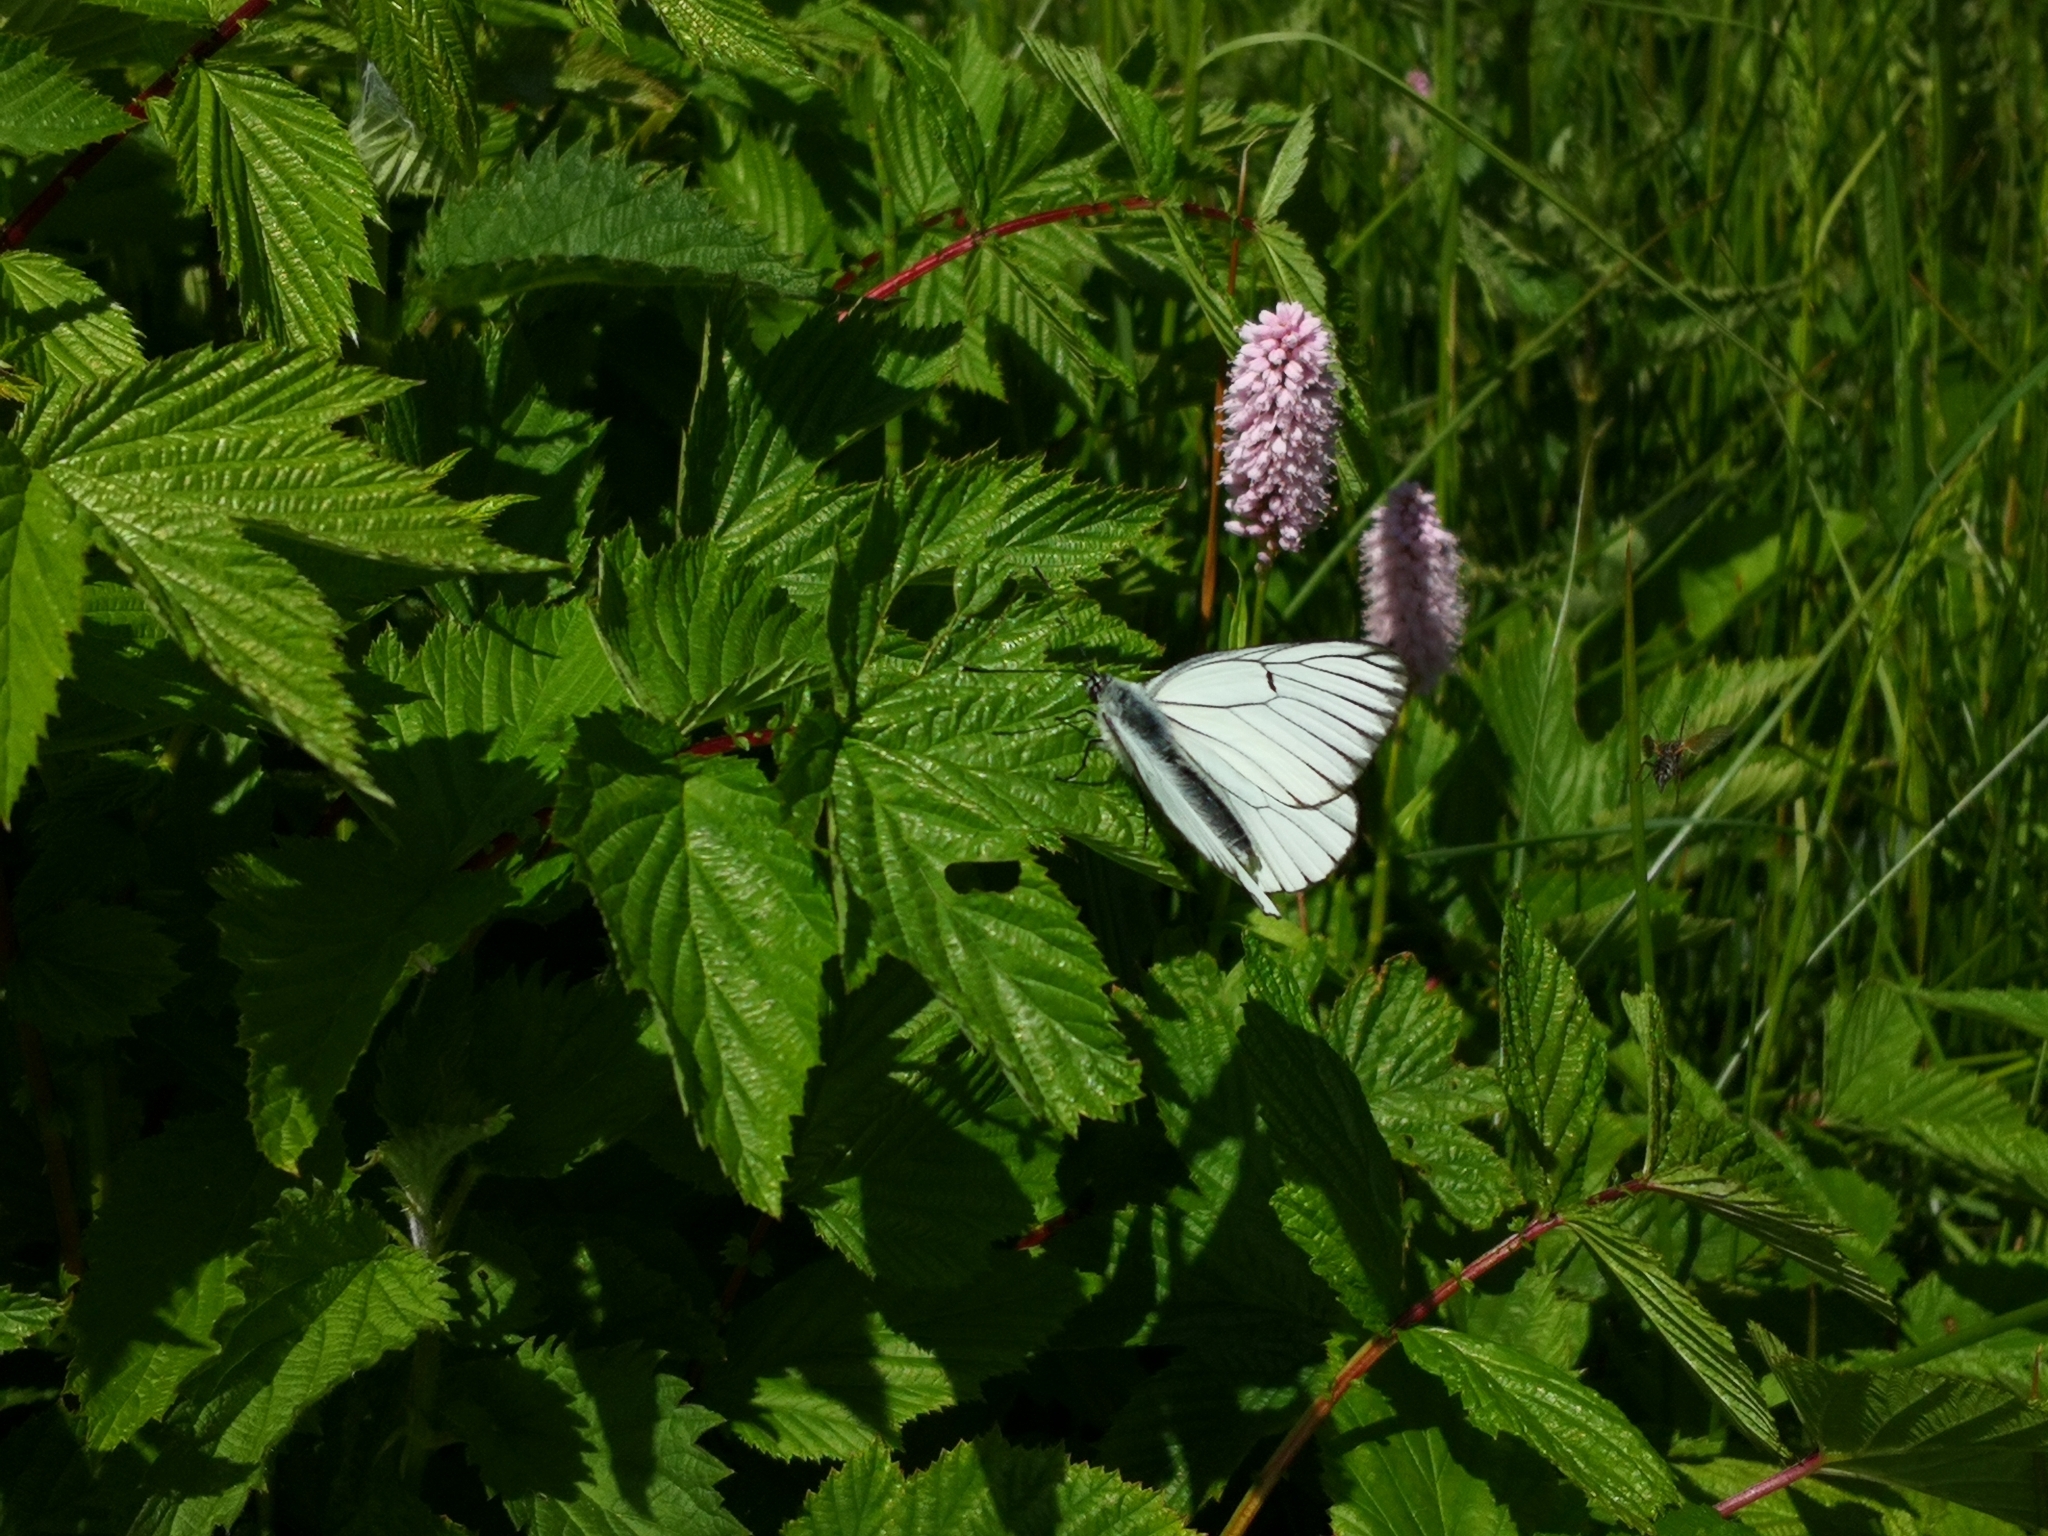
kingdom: Animalia
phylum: Arthropoda
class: Insecta
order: Lepidoptera
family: Pieridae
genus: Aporia
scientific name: Aporia crataegi
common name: Black-veined white
